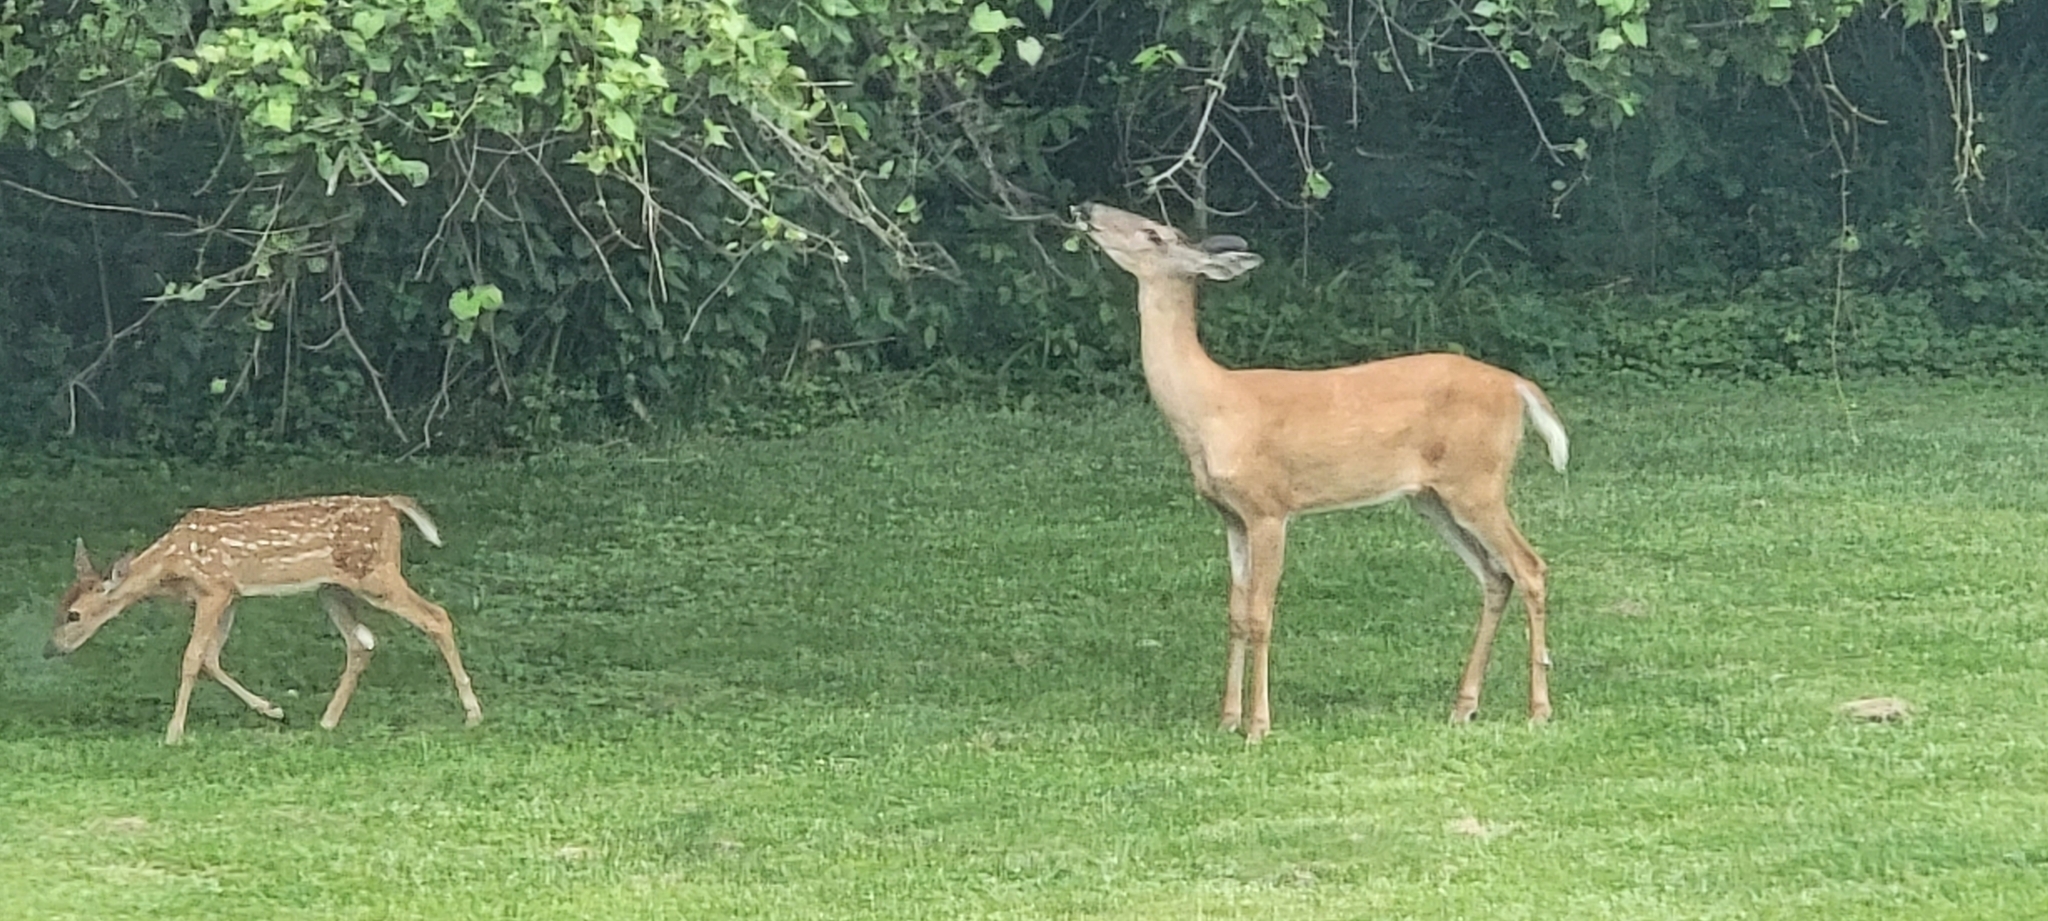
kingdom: Animalia
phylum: Chordata
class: Mammalia
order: Artiodactyla
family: Cervidae
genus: Odocoileus
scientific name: Odocoileus virginianus
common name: White-tailed deer
